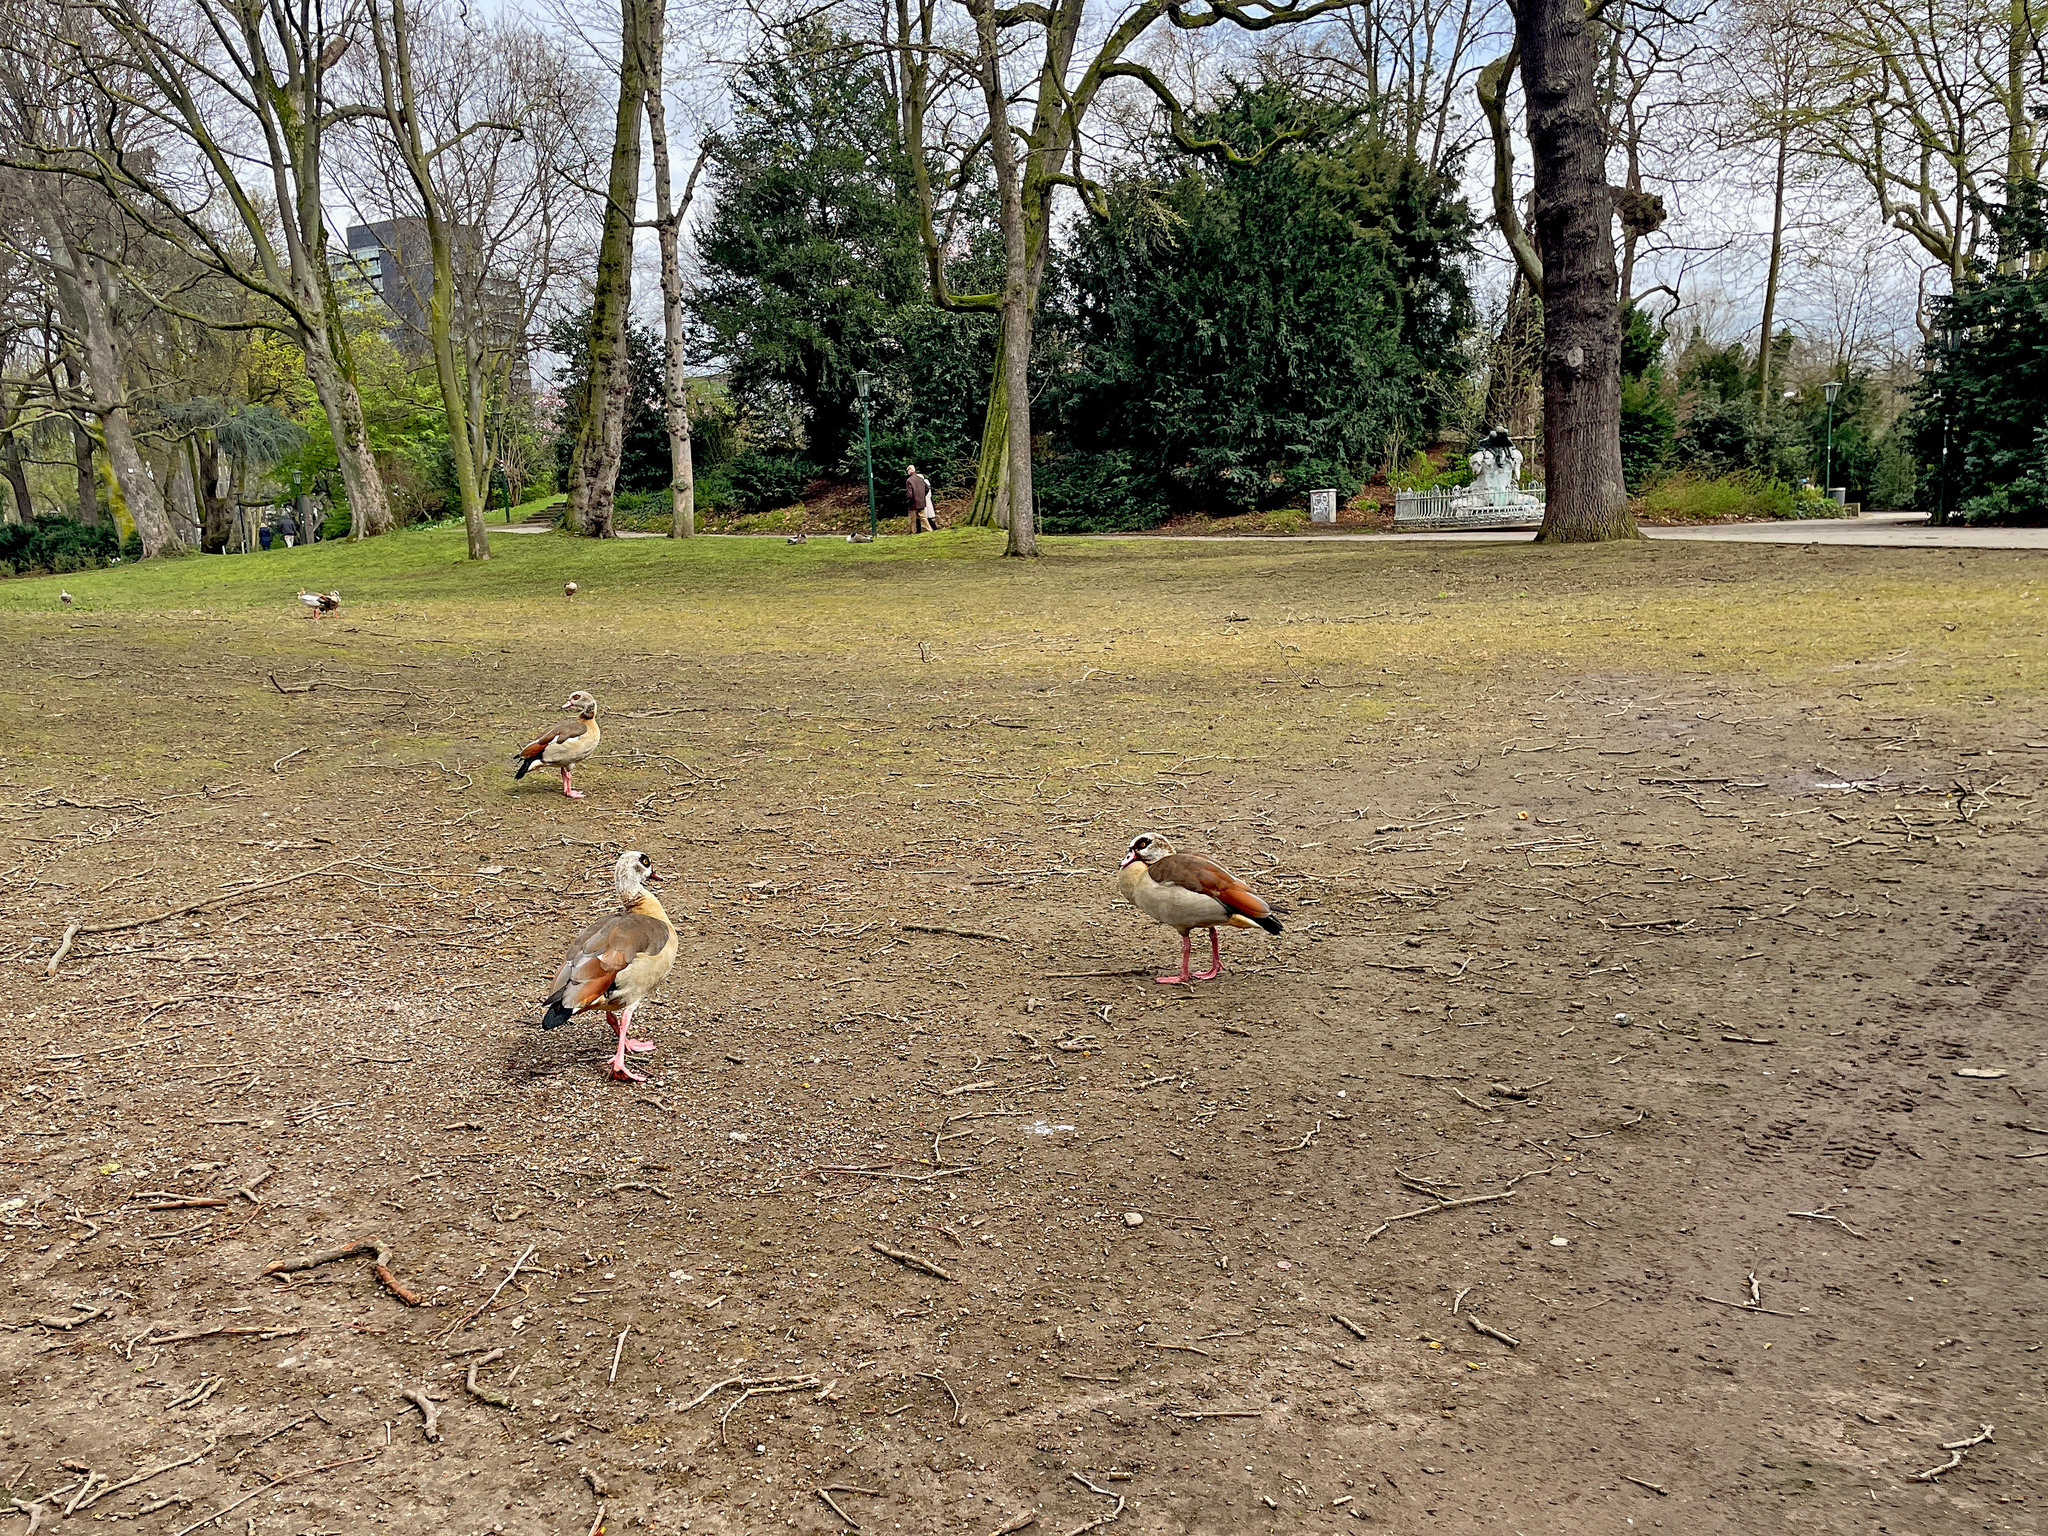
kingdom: Animalia
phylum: Chordata
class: Aves
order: Anseriformes
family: Anatidae
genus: Alopochen
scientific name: Alopochen aegyptiaca
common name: Egyptian goose
